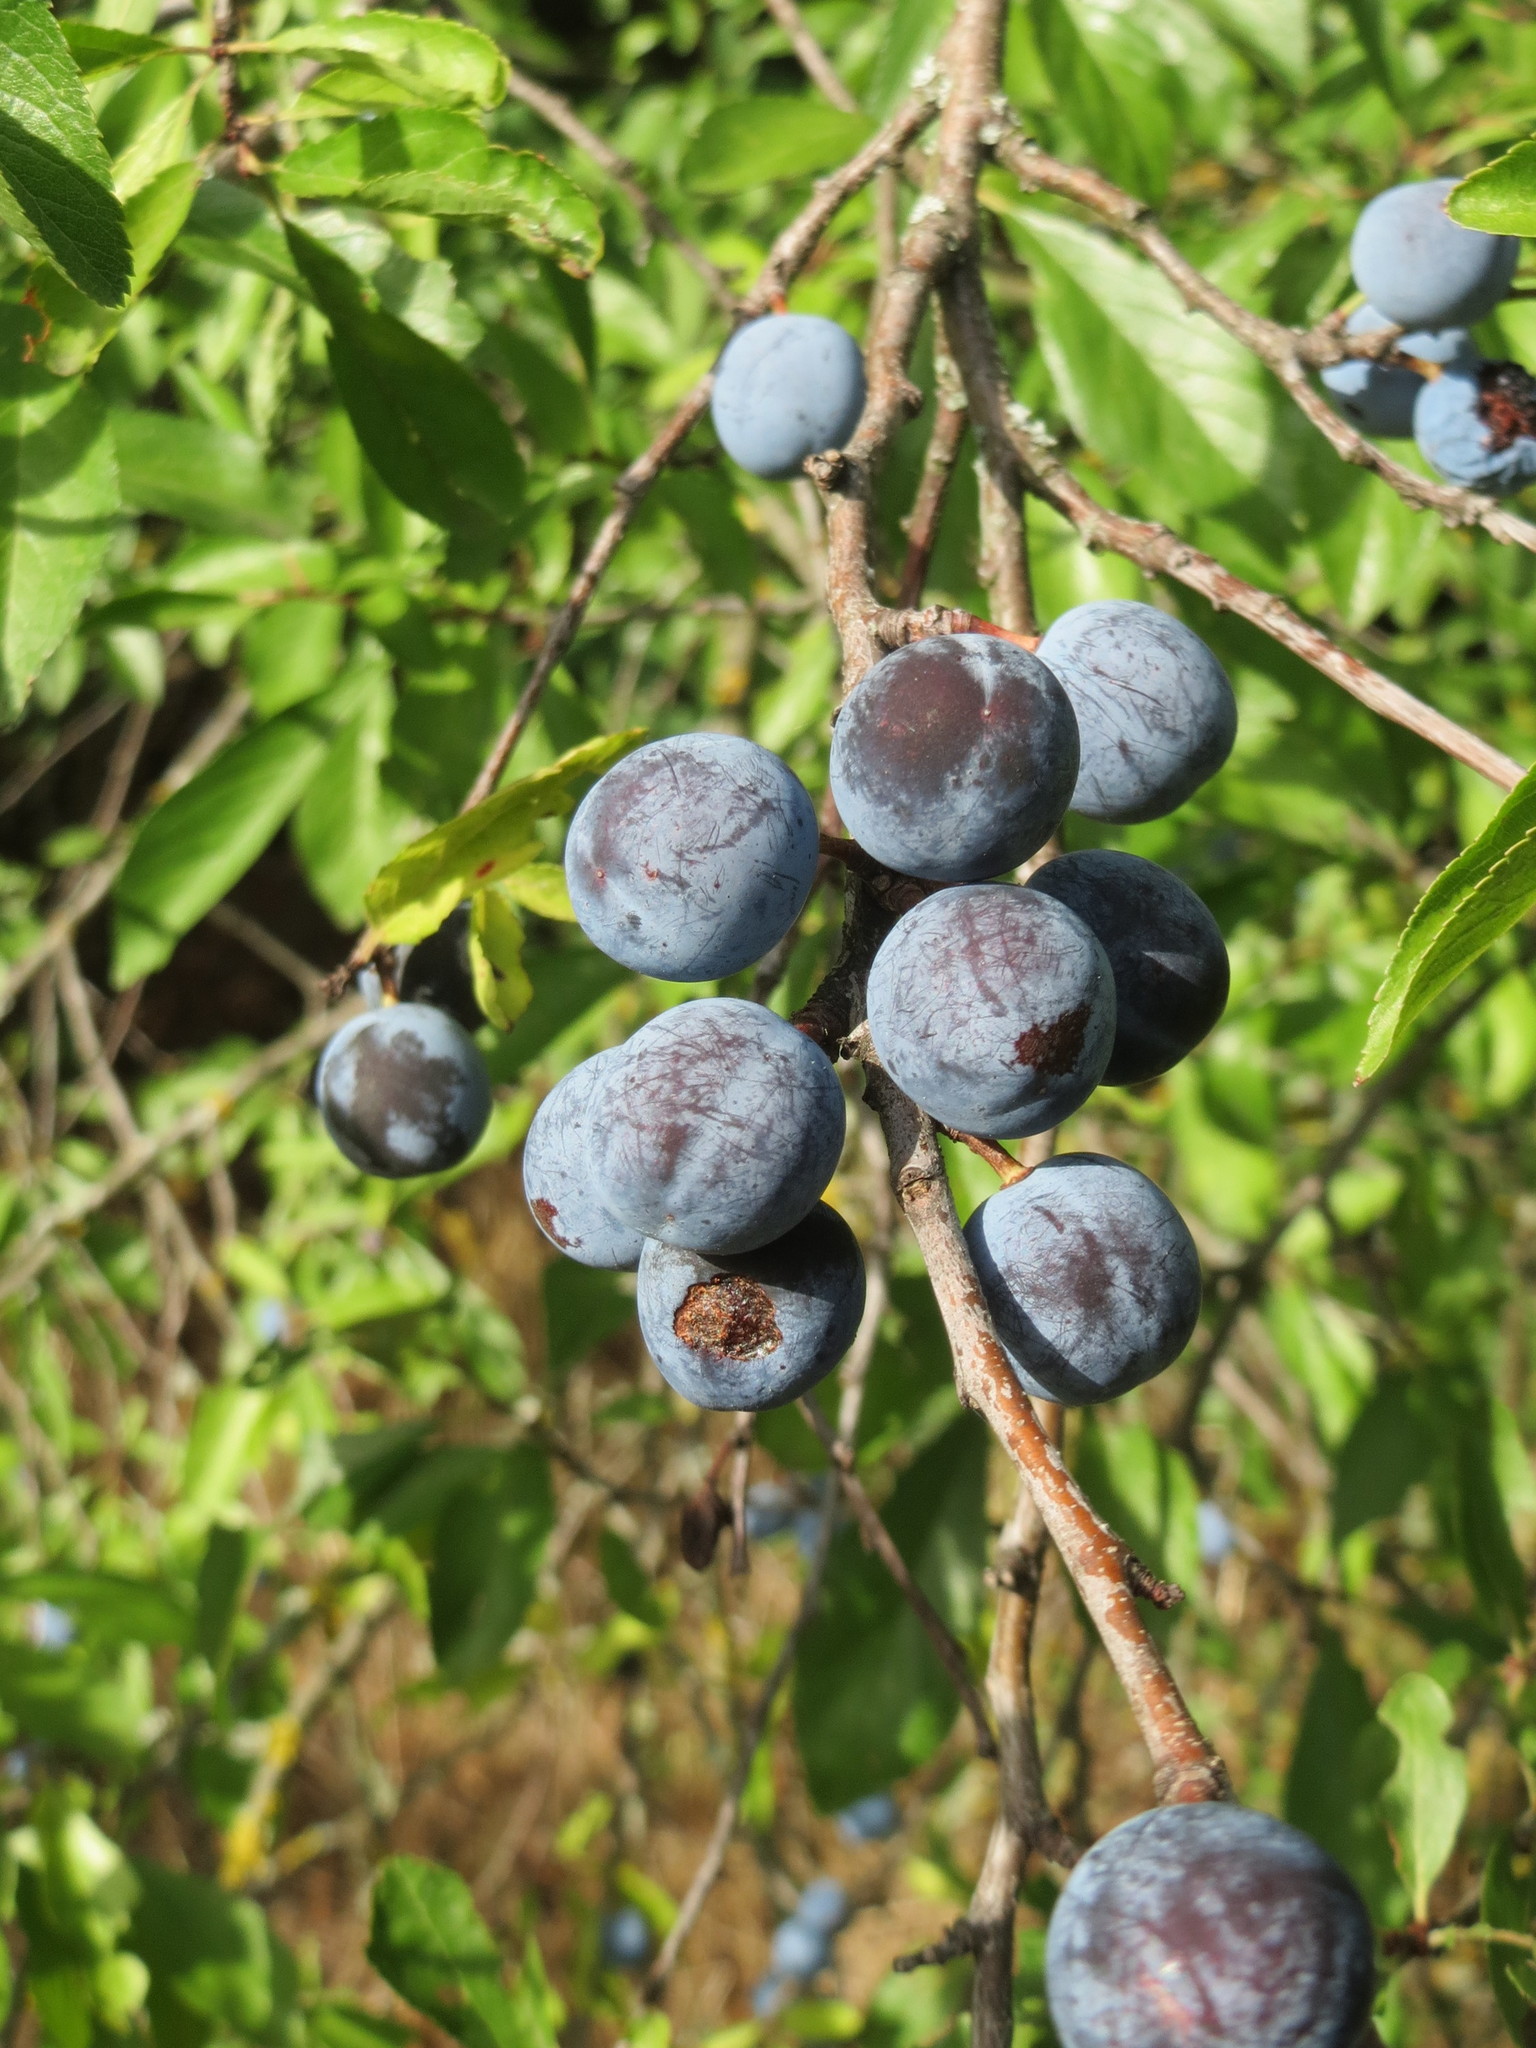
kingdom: Plantae
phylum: Tracheophyta
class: Magnoliopsida
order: Rosales
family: Rosaceae
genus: Prunus
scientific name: Prunus spinosa
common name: Blackthorn
